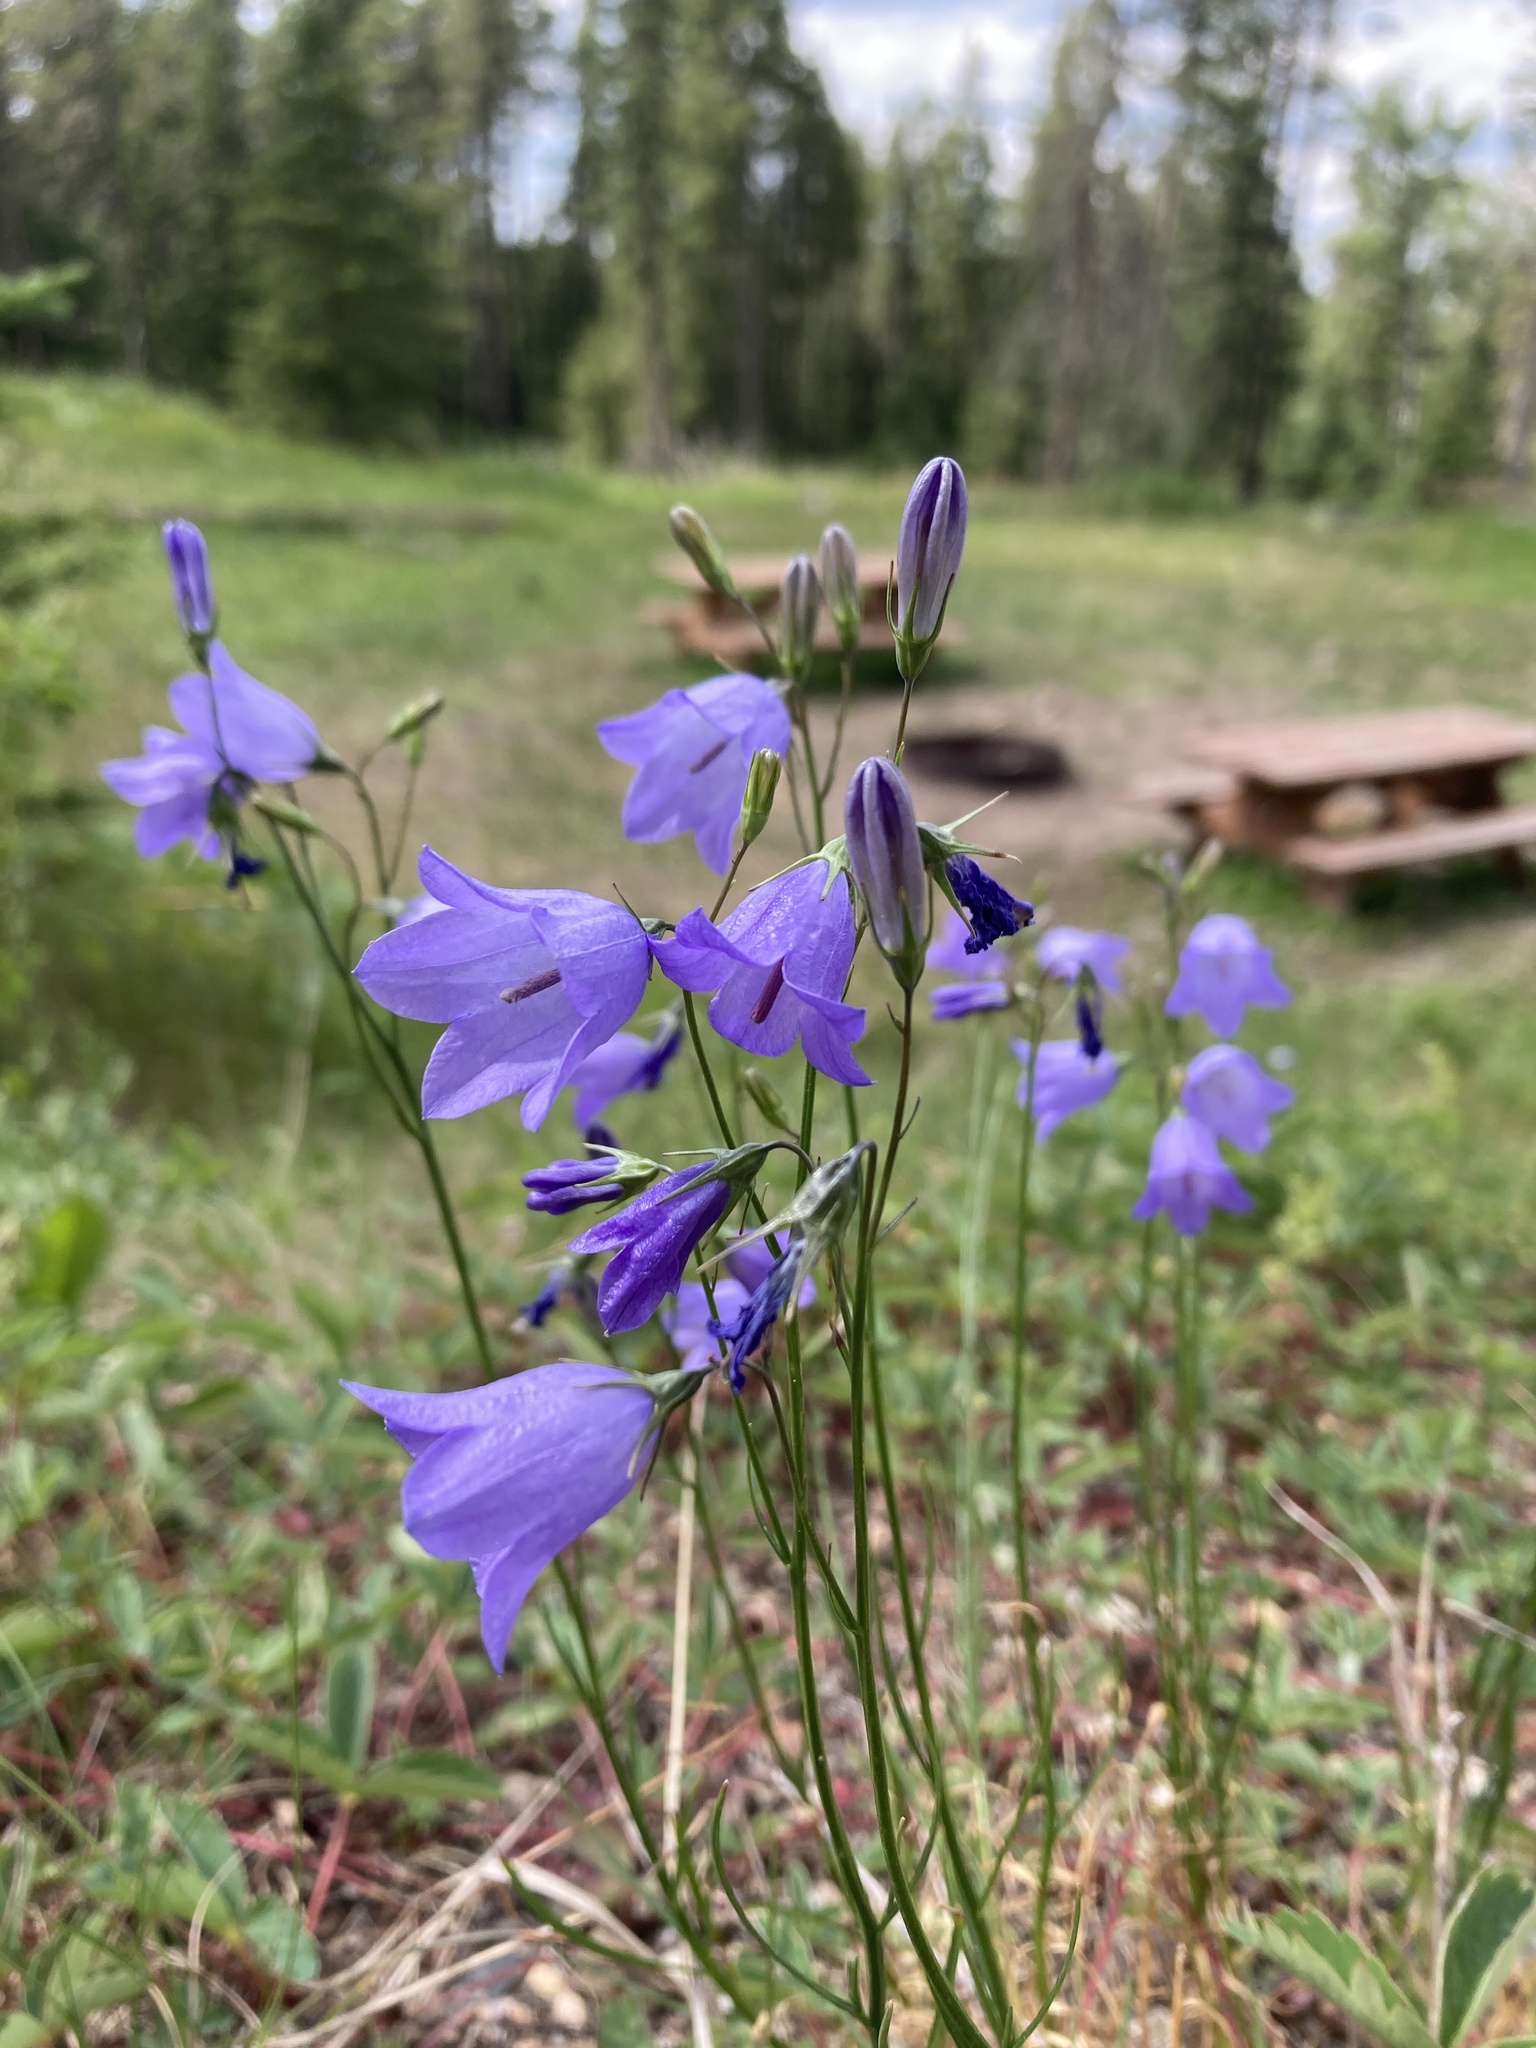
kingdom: Plantae
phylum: Tracheophyta
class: Magnoliopsida
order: Asterales
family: Campanulaceae
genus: Campanula
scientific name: Campanula alaskana
